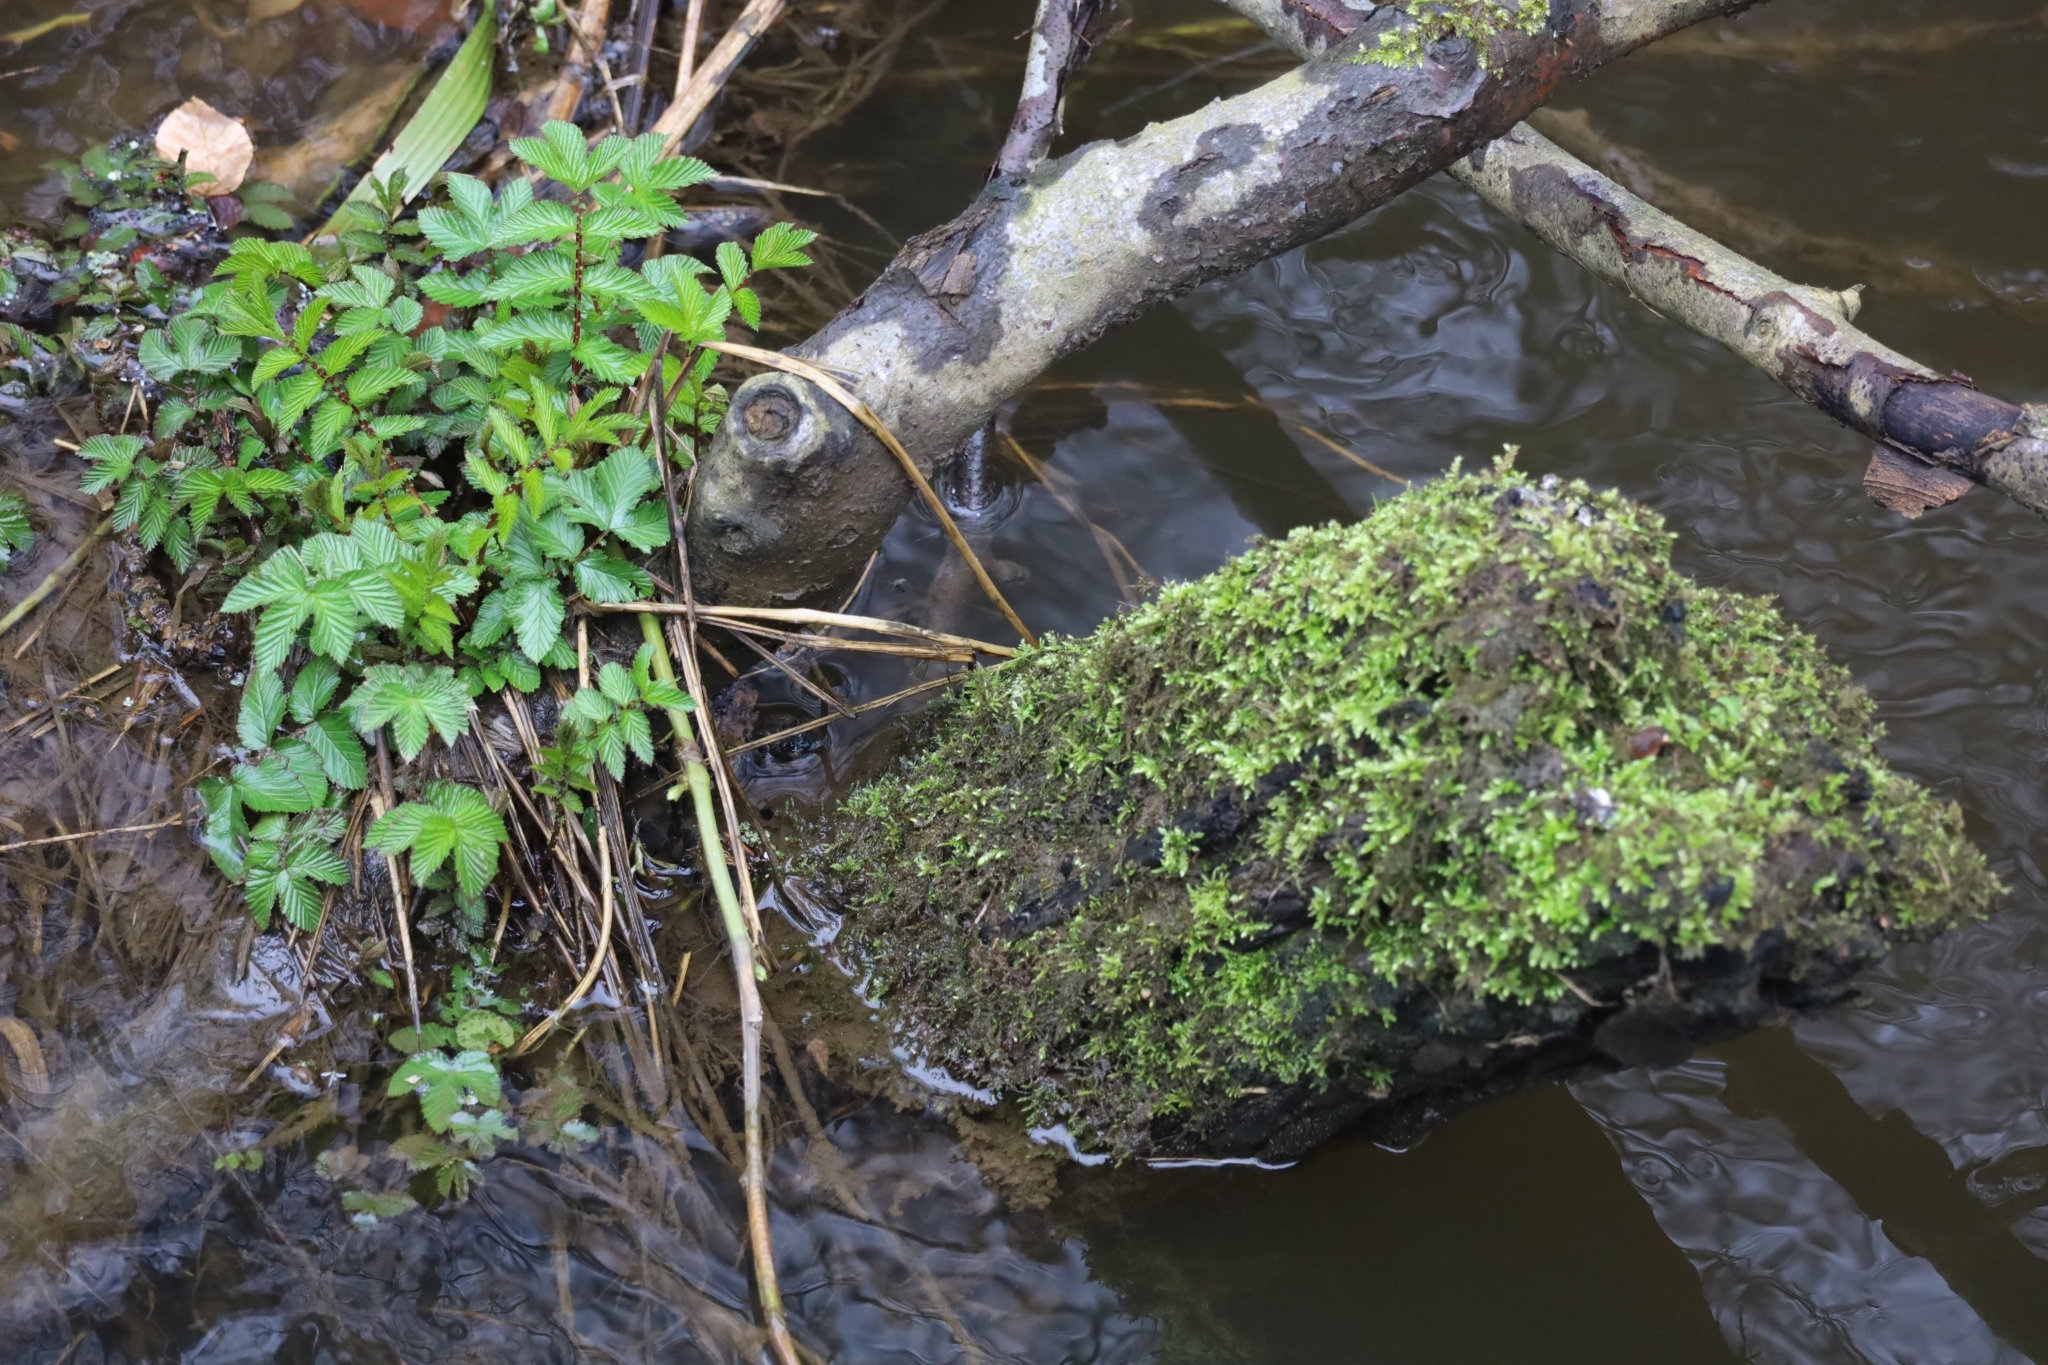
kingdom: Plantae
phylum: Tracheophyta
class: Magnoliopsida
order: Rosales
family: Rosaceae
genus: Filipendula
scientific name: Filipendula ulmaria
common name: Meadowsweet
